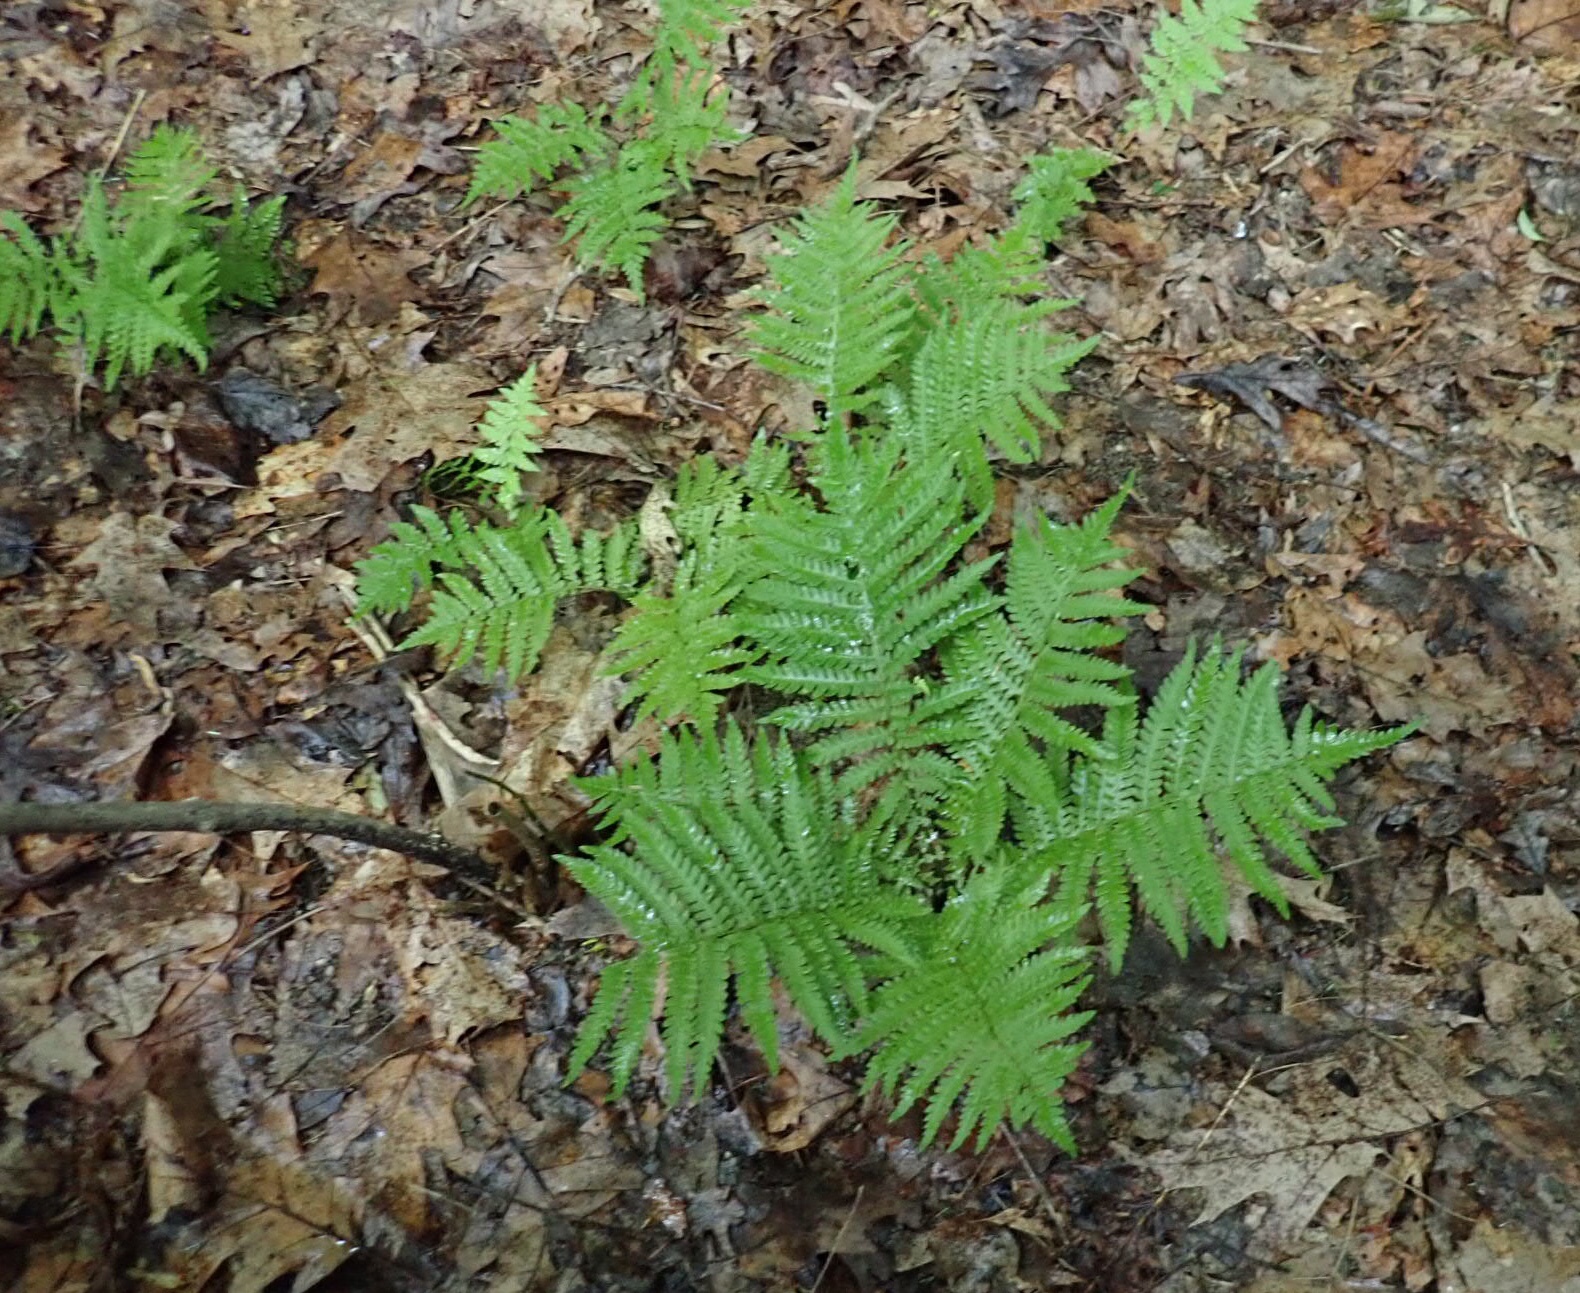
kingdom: Plantae
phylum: Tracheophyta
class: Polypodiopsida
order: Polypodiales
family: Onocleaceae
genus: Matteuccia
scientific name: Matteuccia struthiopteris
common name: Ostrich fern
